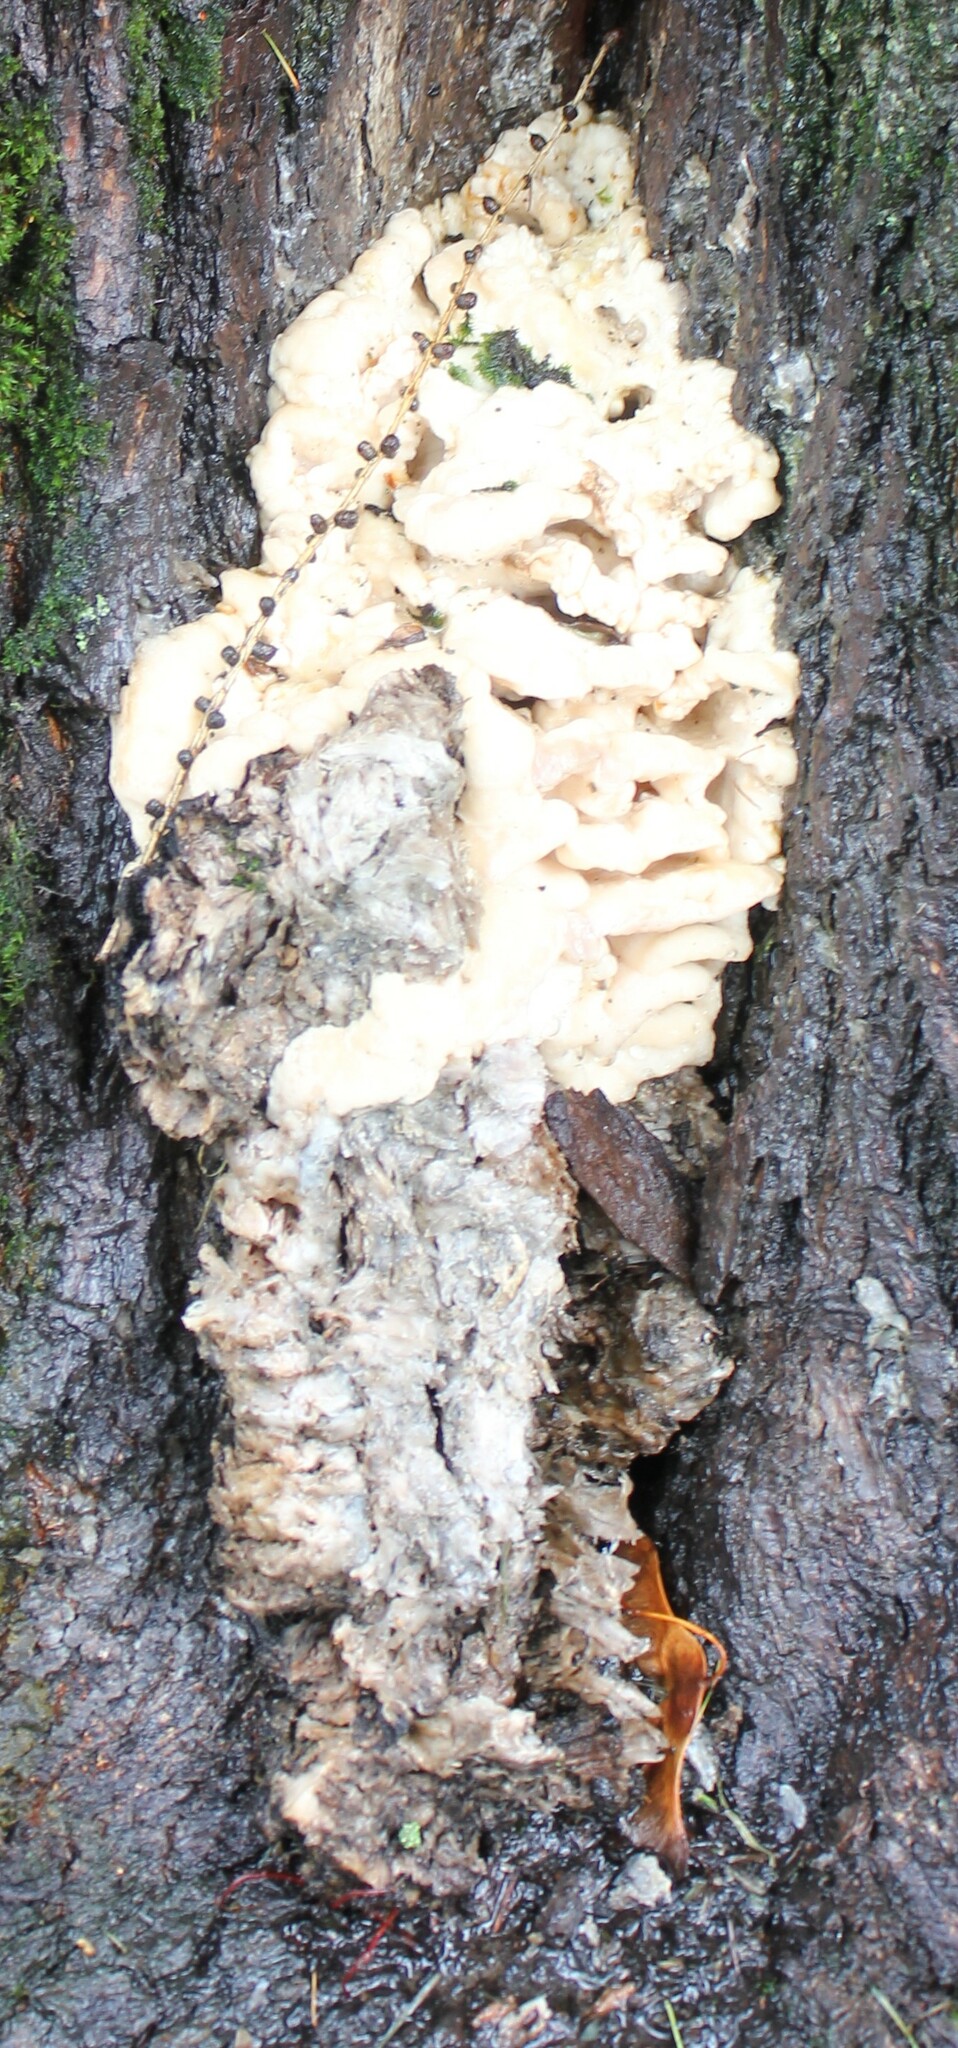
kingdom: Fungi
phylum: Basidiomycota
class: Agaricomycetes
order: Polyporales
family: Meruliaceae
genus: Climacodon
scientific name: Climacodon septentrionalis
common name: Northern tooth
